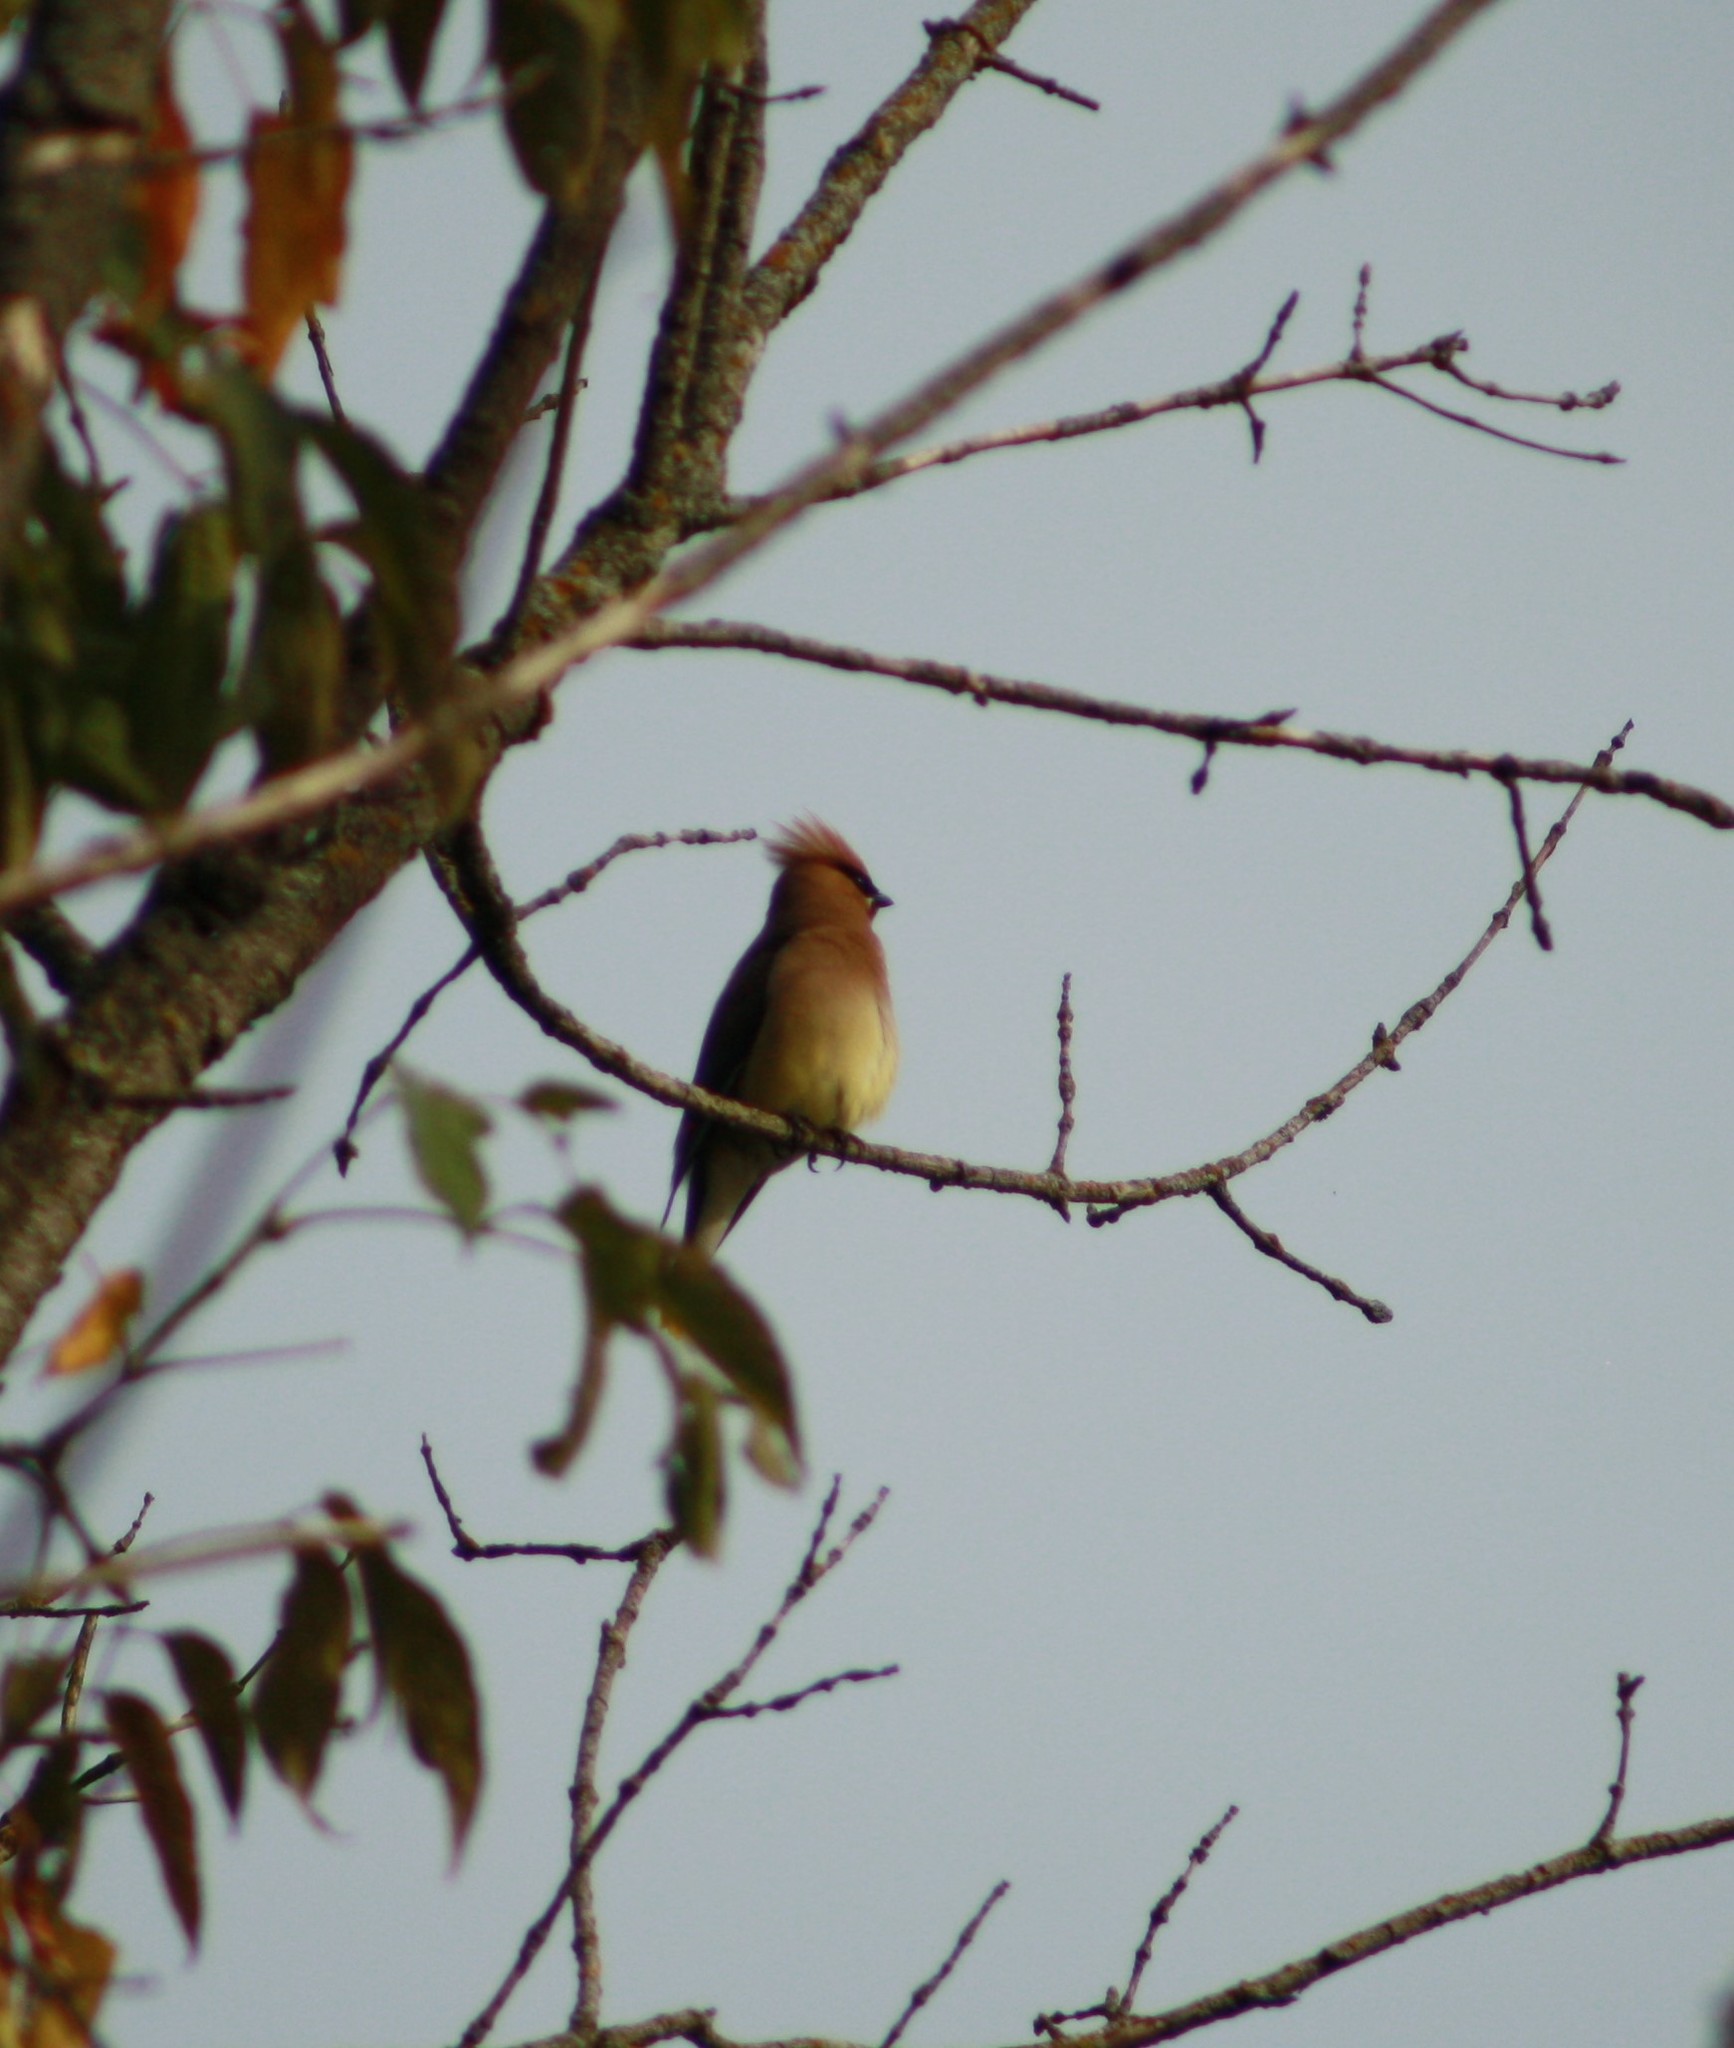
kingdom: Animalia
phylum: Chordata
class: Aves
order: Passeriformes
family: Bombycillidae
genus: Bombycilla
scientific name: Bombycilla cedrorum
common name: Cedar waxwing
